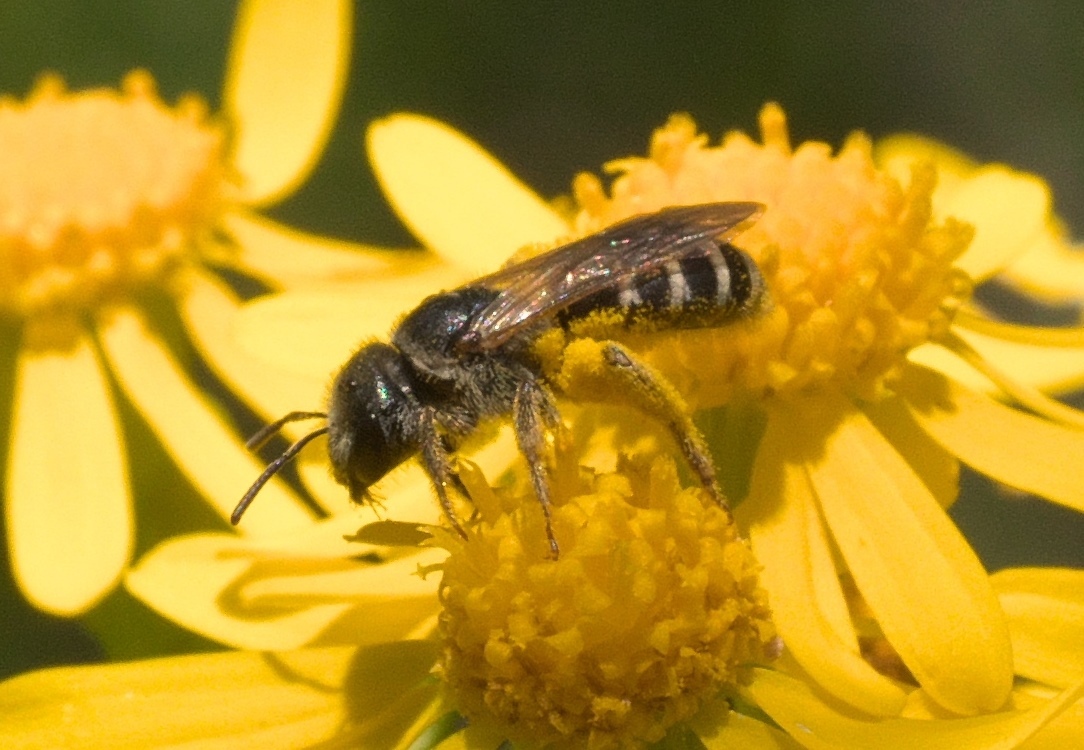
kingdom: Animalia
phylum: Arthropoda
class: Insecta
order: Hymenoptera
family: Halictidae
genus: Halictus
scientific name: Halictus ligatus
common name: Ligated furrow bee
